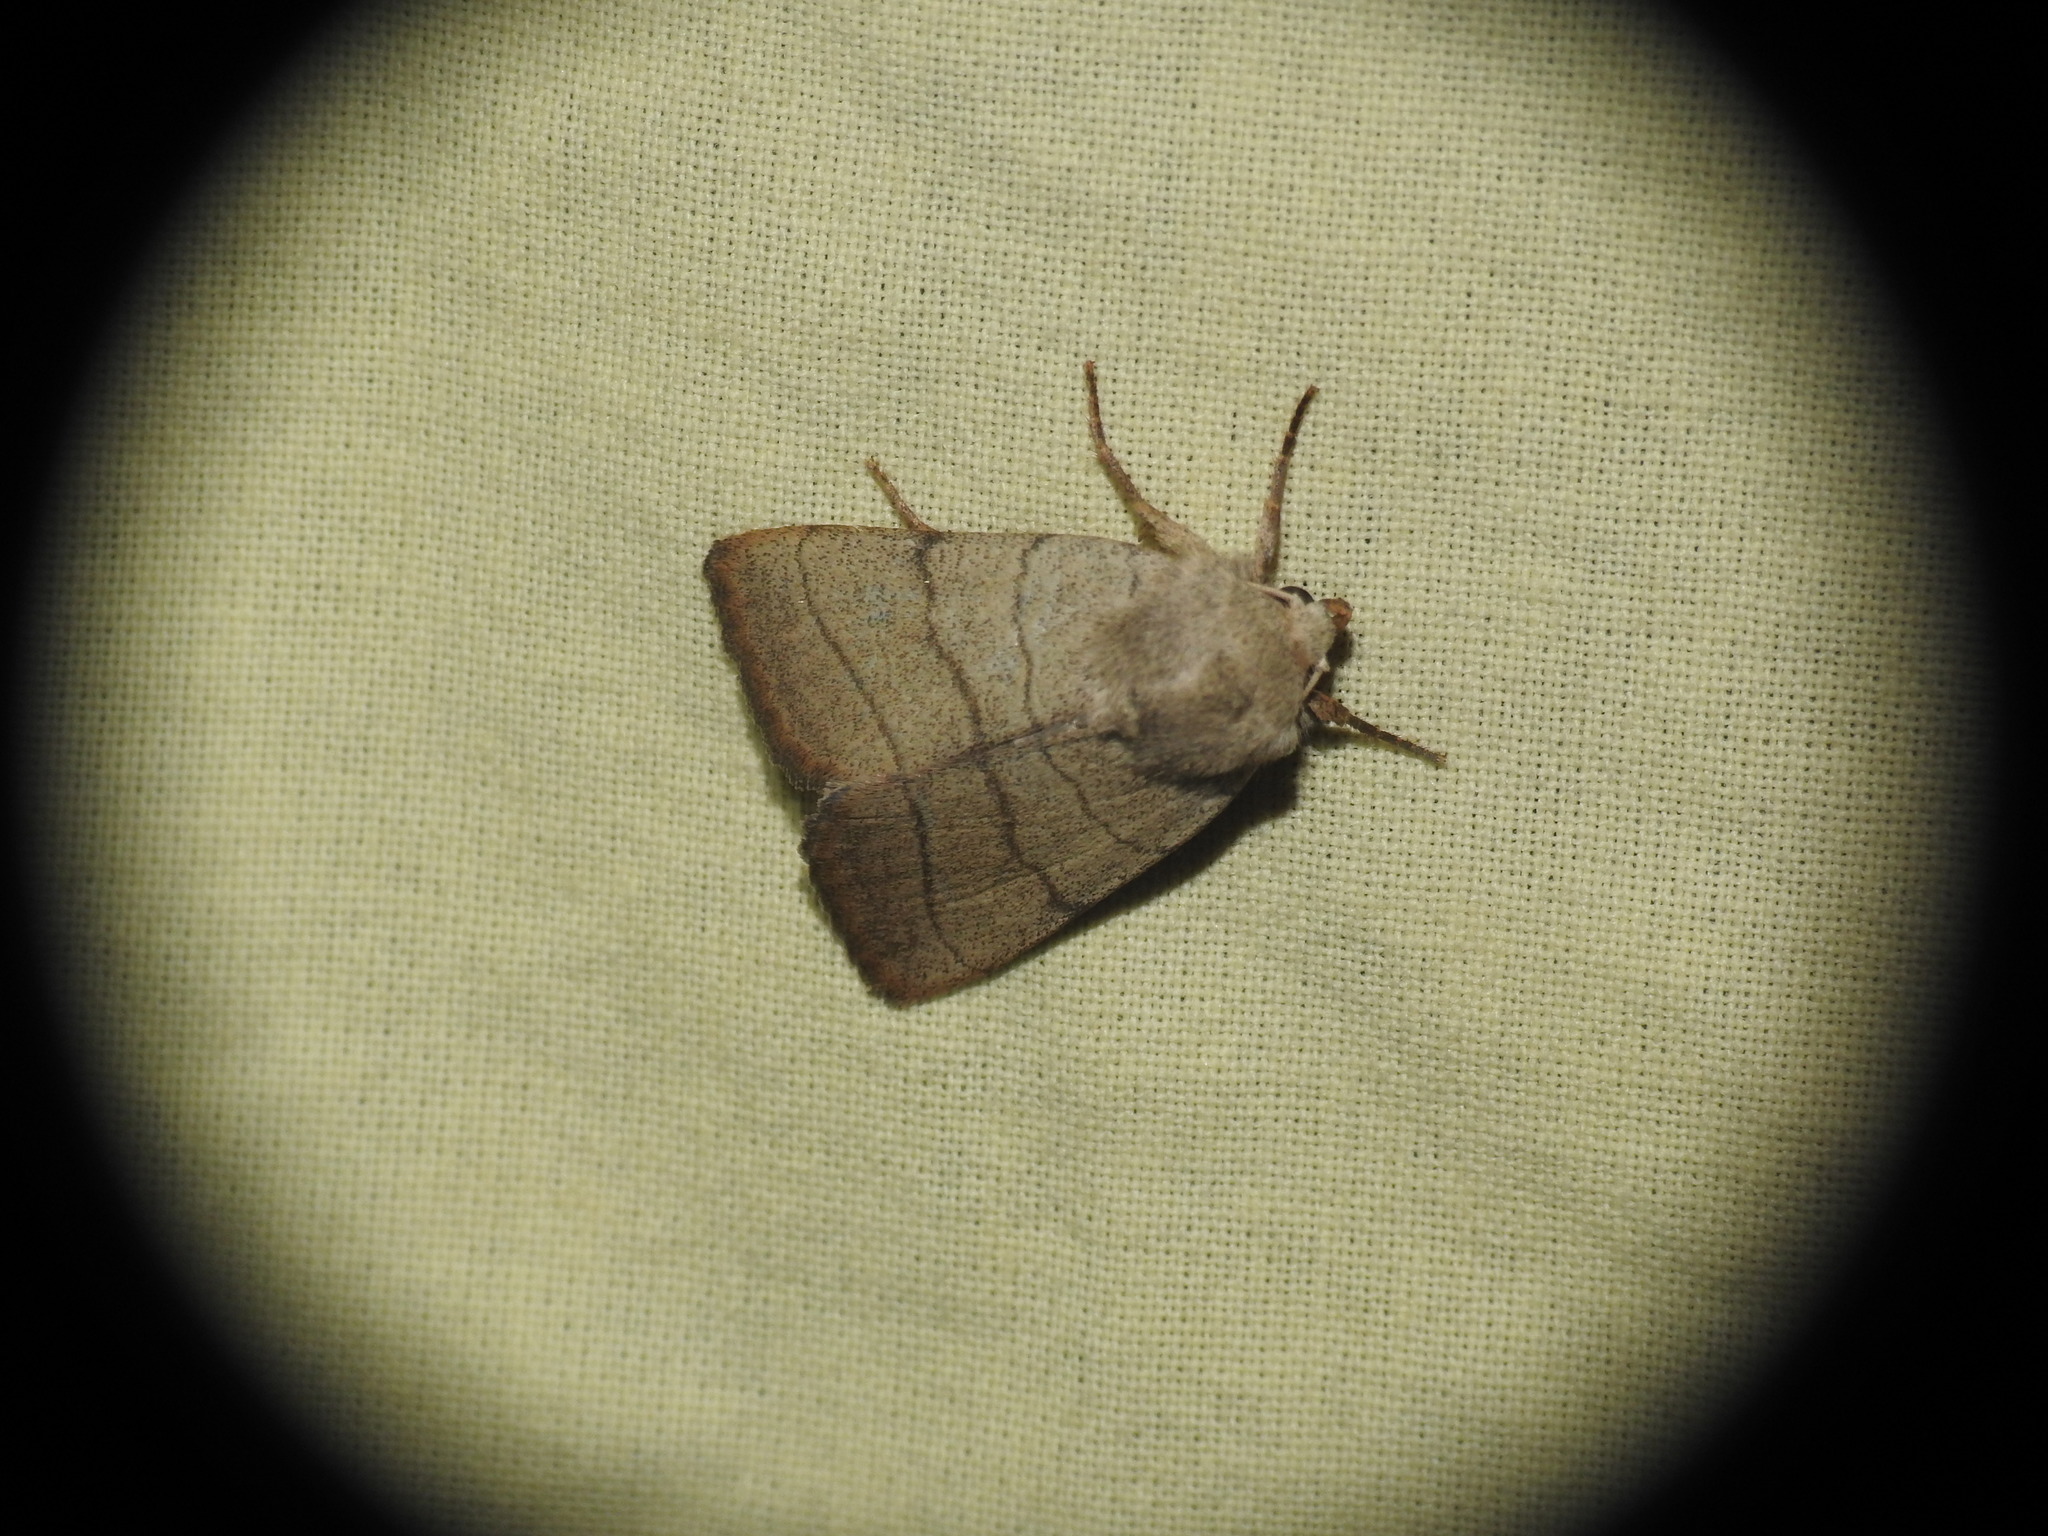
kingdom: Animalia
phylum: Arthropoda
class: Insecta
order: Lepidoptera
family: Noctuidae
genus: Charanyca
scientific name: Charanyca trigrammica
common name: Treble lines
